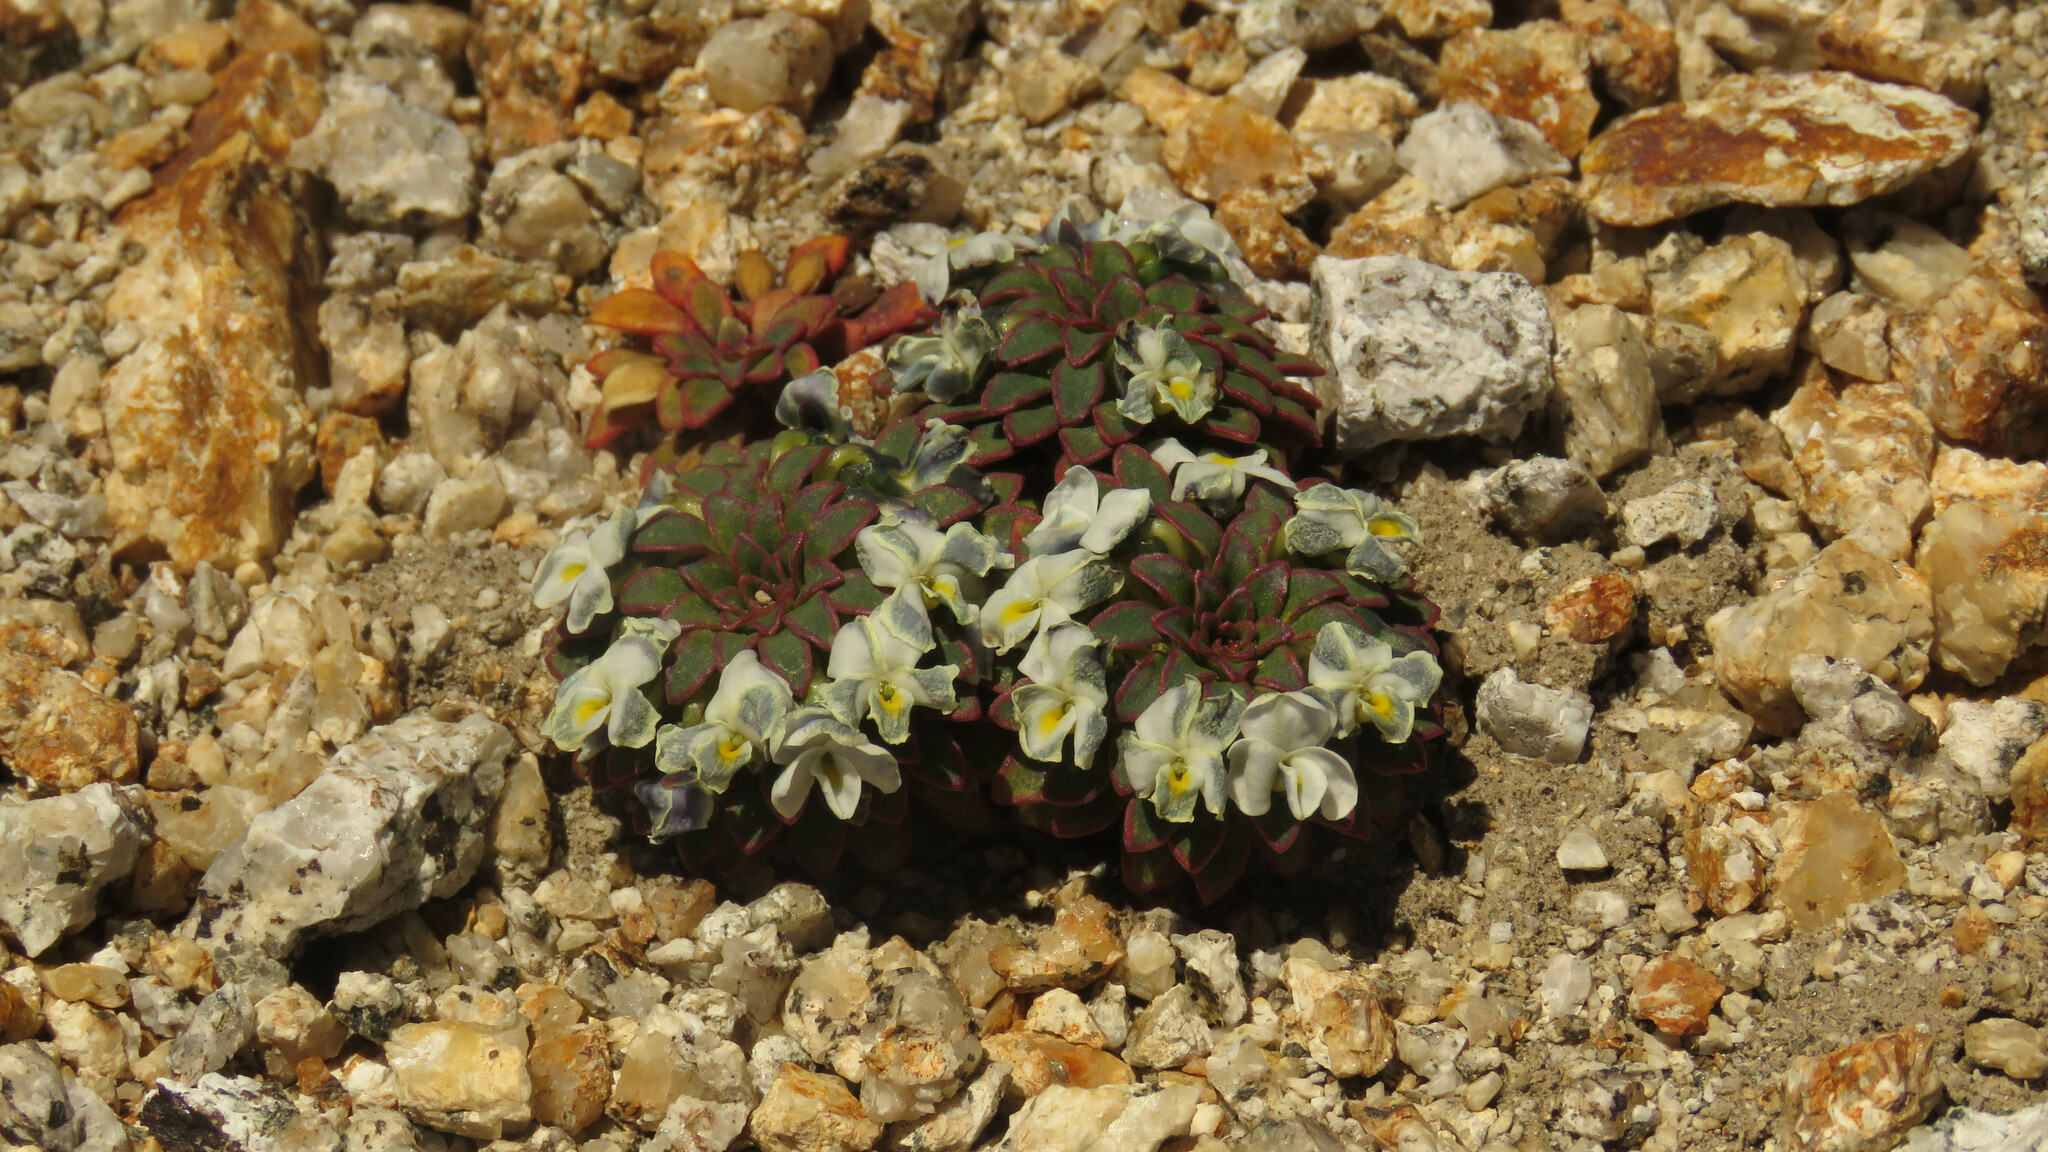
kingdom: Plantae
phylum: Tracheophyta
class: Magnoliopsida
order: Malpighiales
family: Violaceae
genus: Viola
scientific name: Viola sacculus
